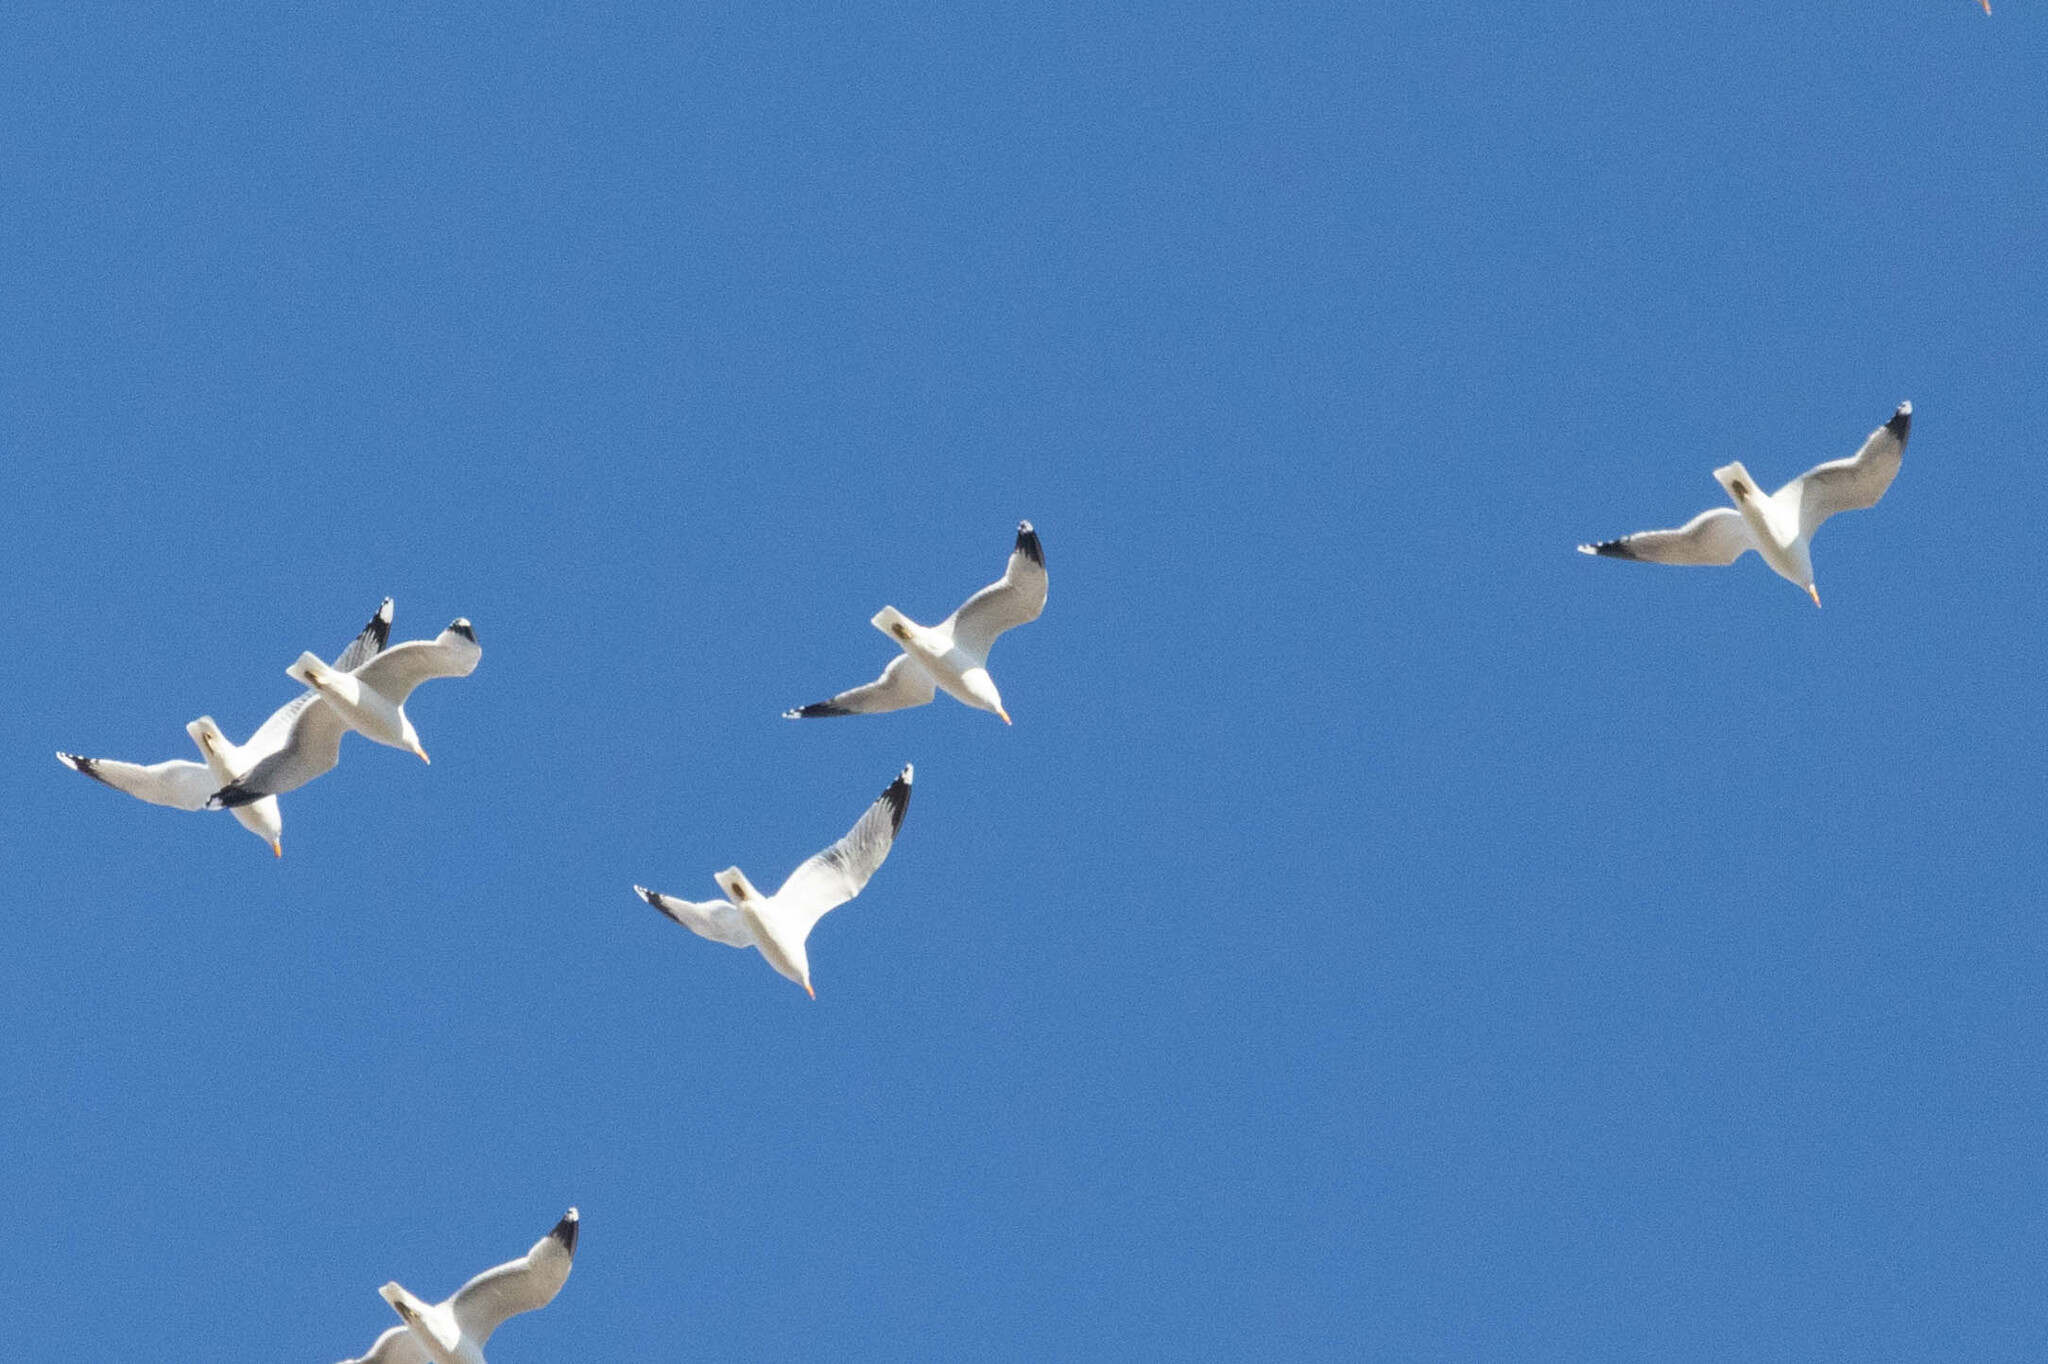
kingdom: Animalia
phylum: Chordata
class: Aves
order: Charadriiformes
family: Laridae
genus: Larus
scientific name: Larus californicus
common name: California gull
